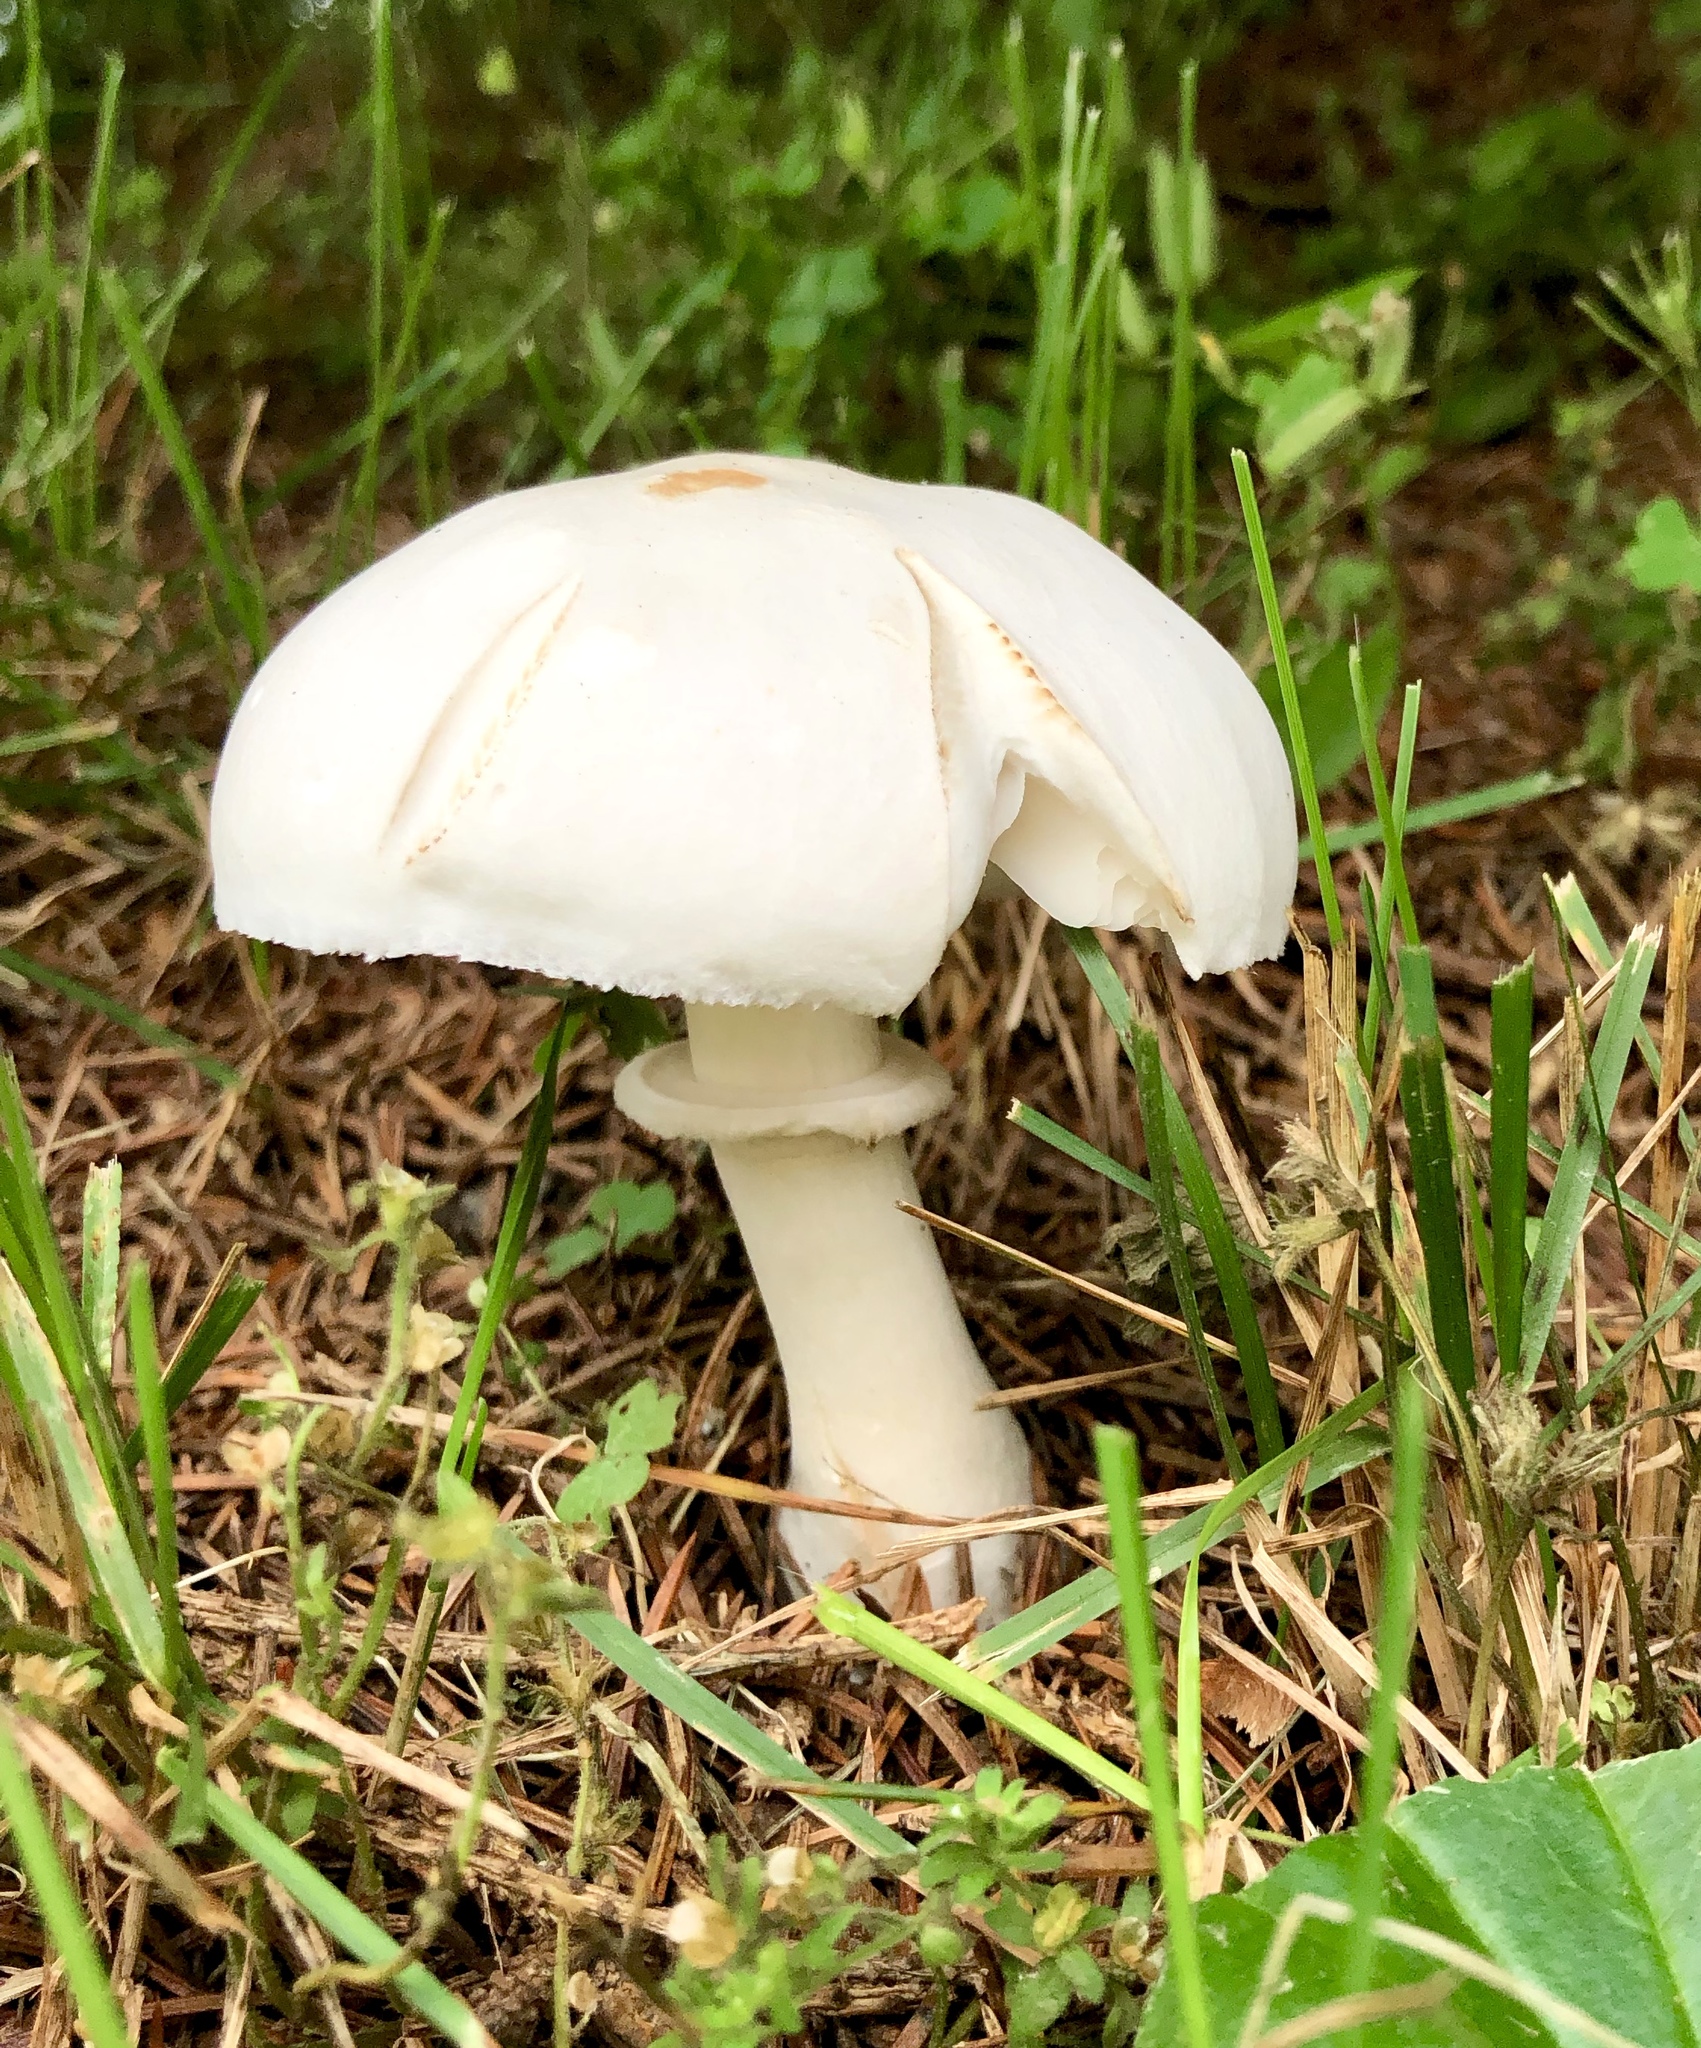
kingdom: Fungi
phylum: Basidiomycota
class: Agaricomycetes
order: Agaricales
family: Agaricaceae
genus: Leucoagaricus
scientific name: Leucoagaricus leucothites
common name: White dapperling
